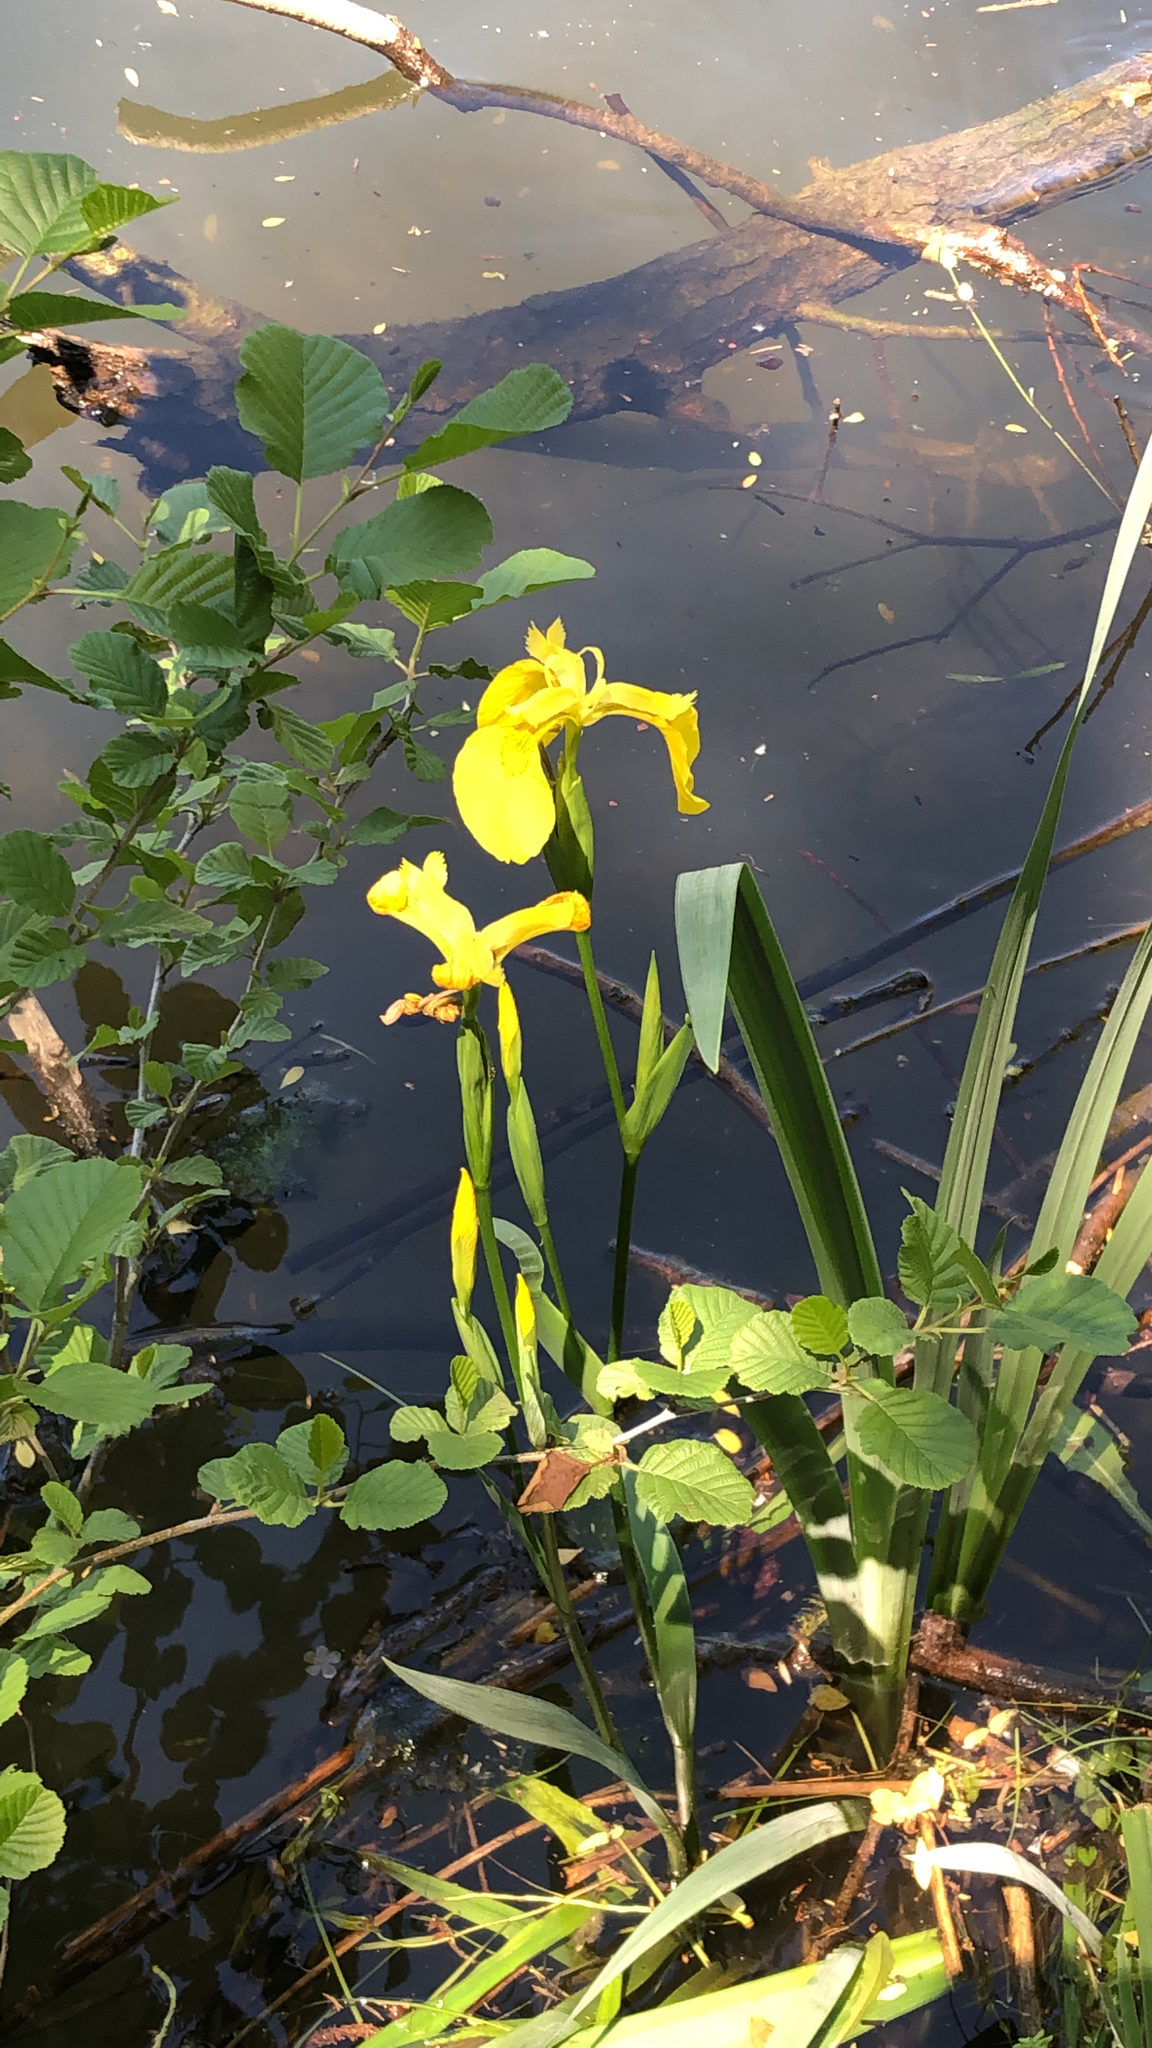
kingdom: Plantae
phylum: Tracheophyta
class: Liliopsida
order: Asparagales
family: Iridaceae
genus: Iris
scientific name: Iris pseudacorus
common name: Yellow flag
